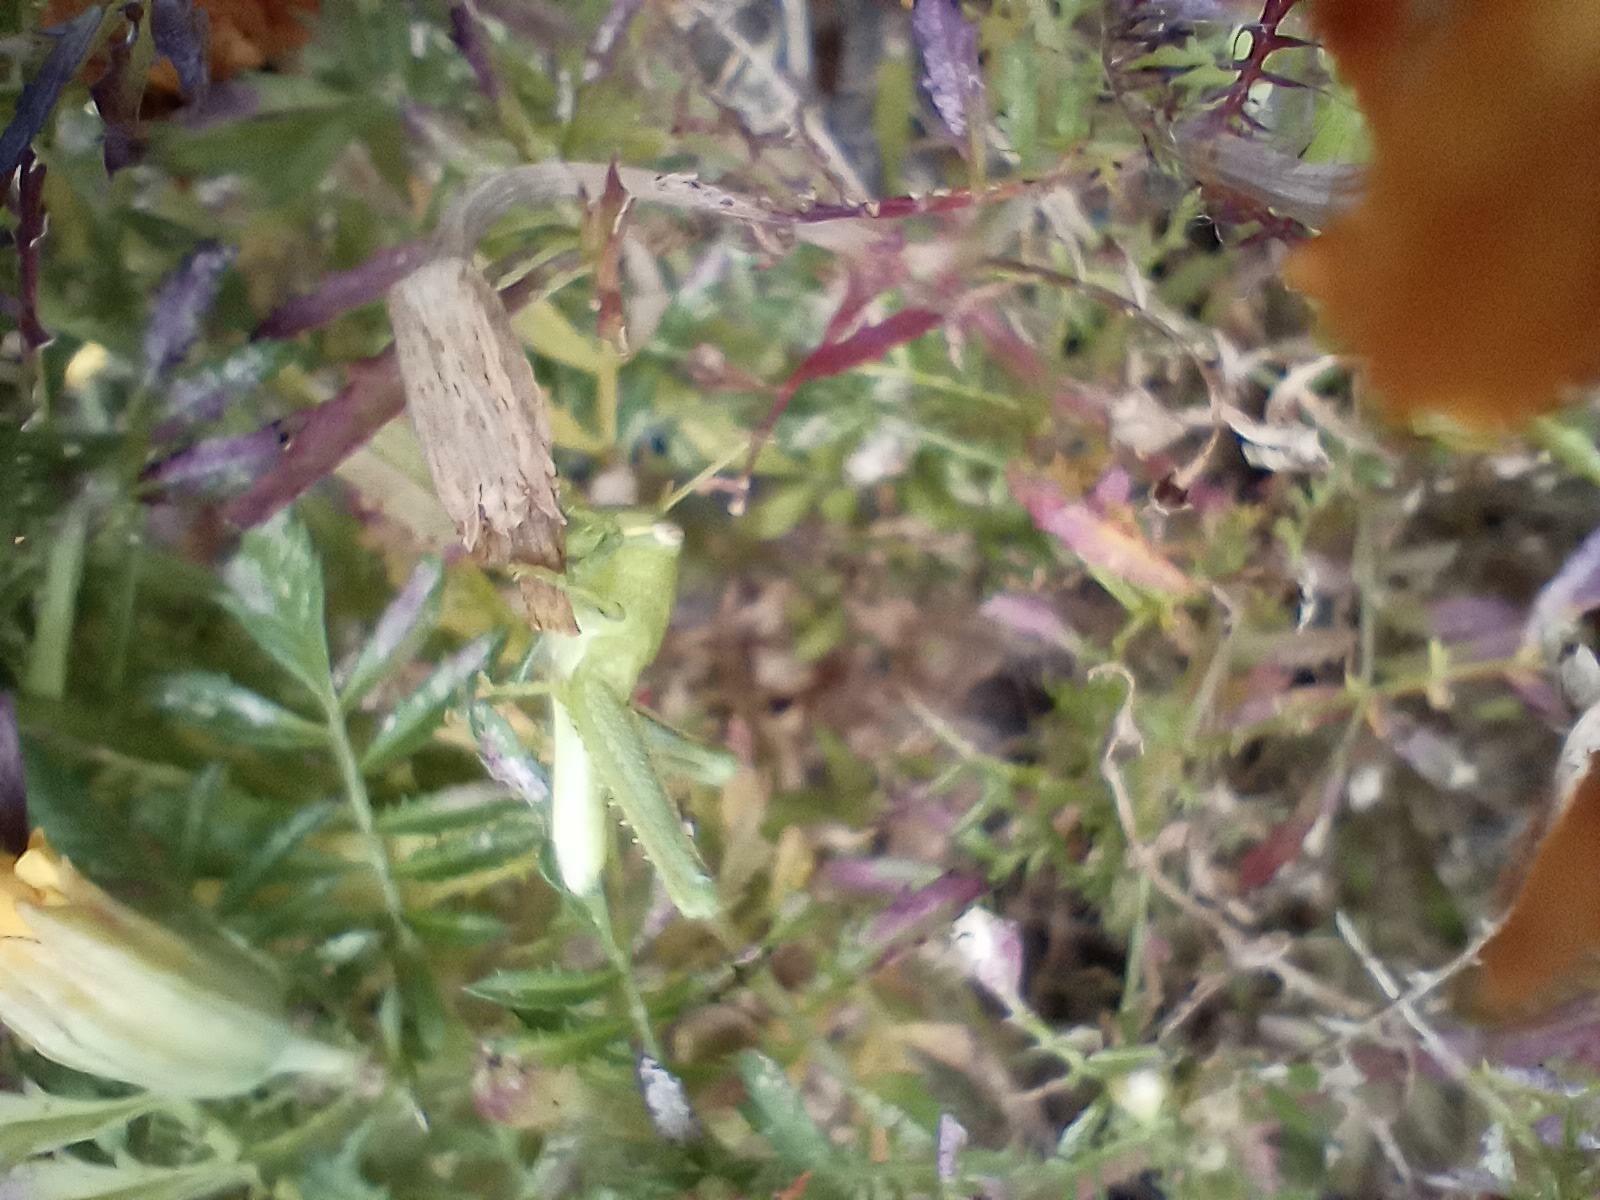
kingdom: Animalia
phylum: Arthropoda
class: Insecta
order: Orthoptera
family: Acrididae
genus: Schistocerca
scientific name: Schistocerca nitens
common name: Vagrant grasshopper
